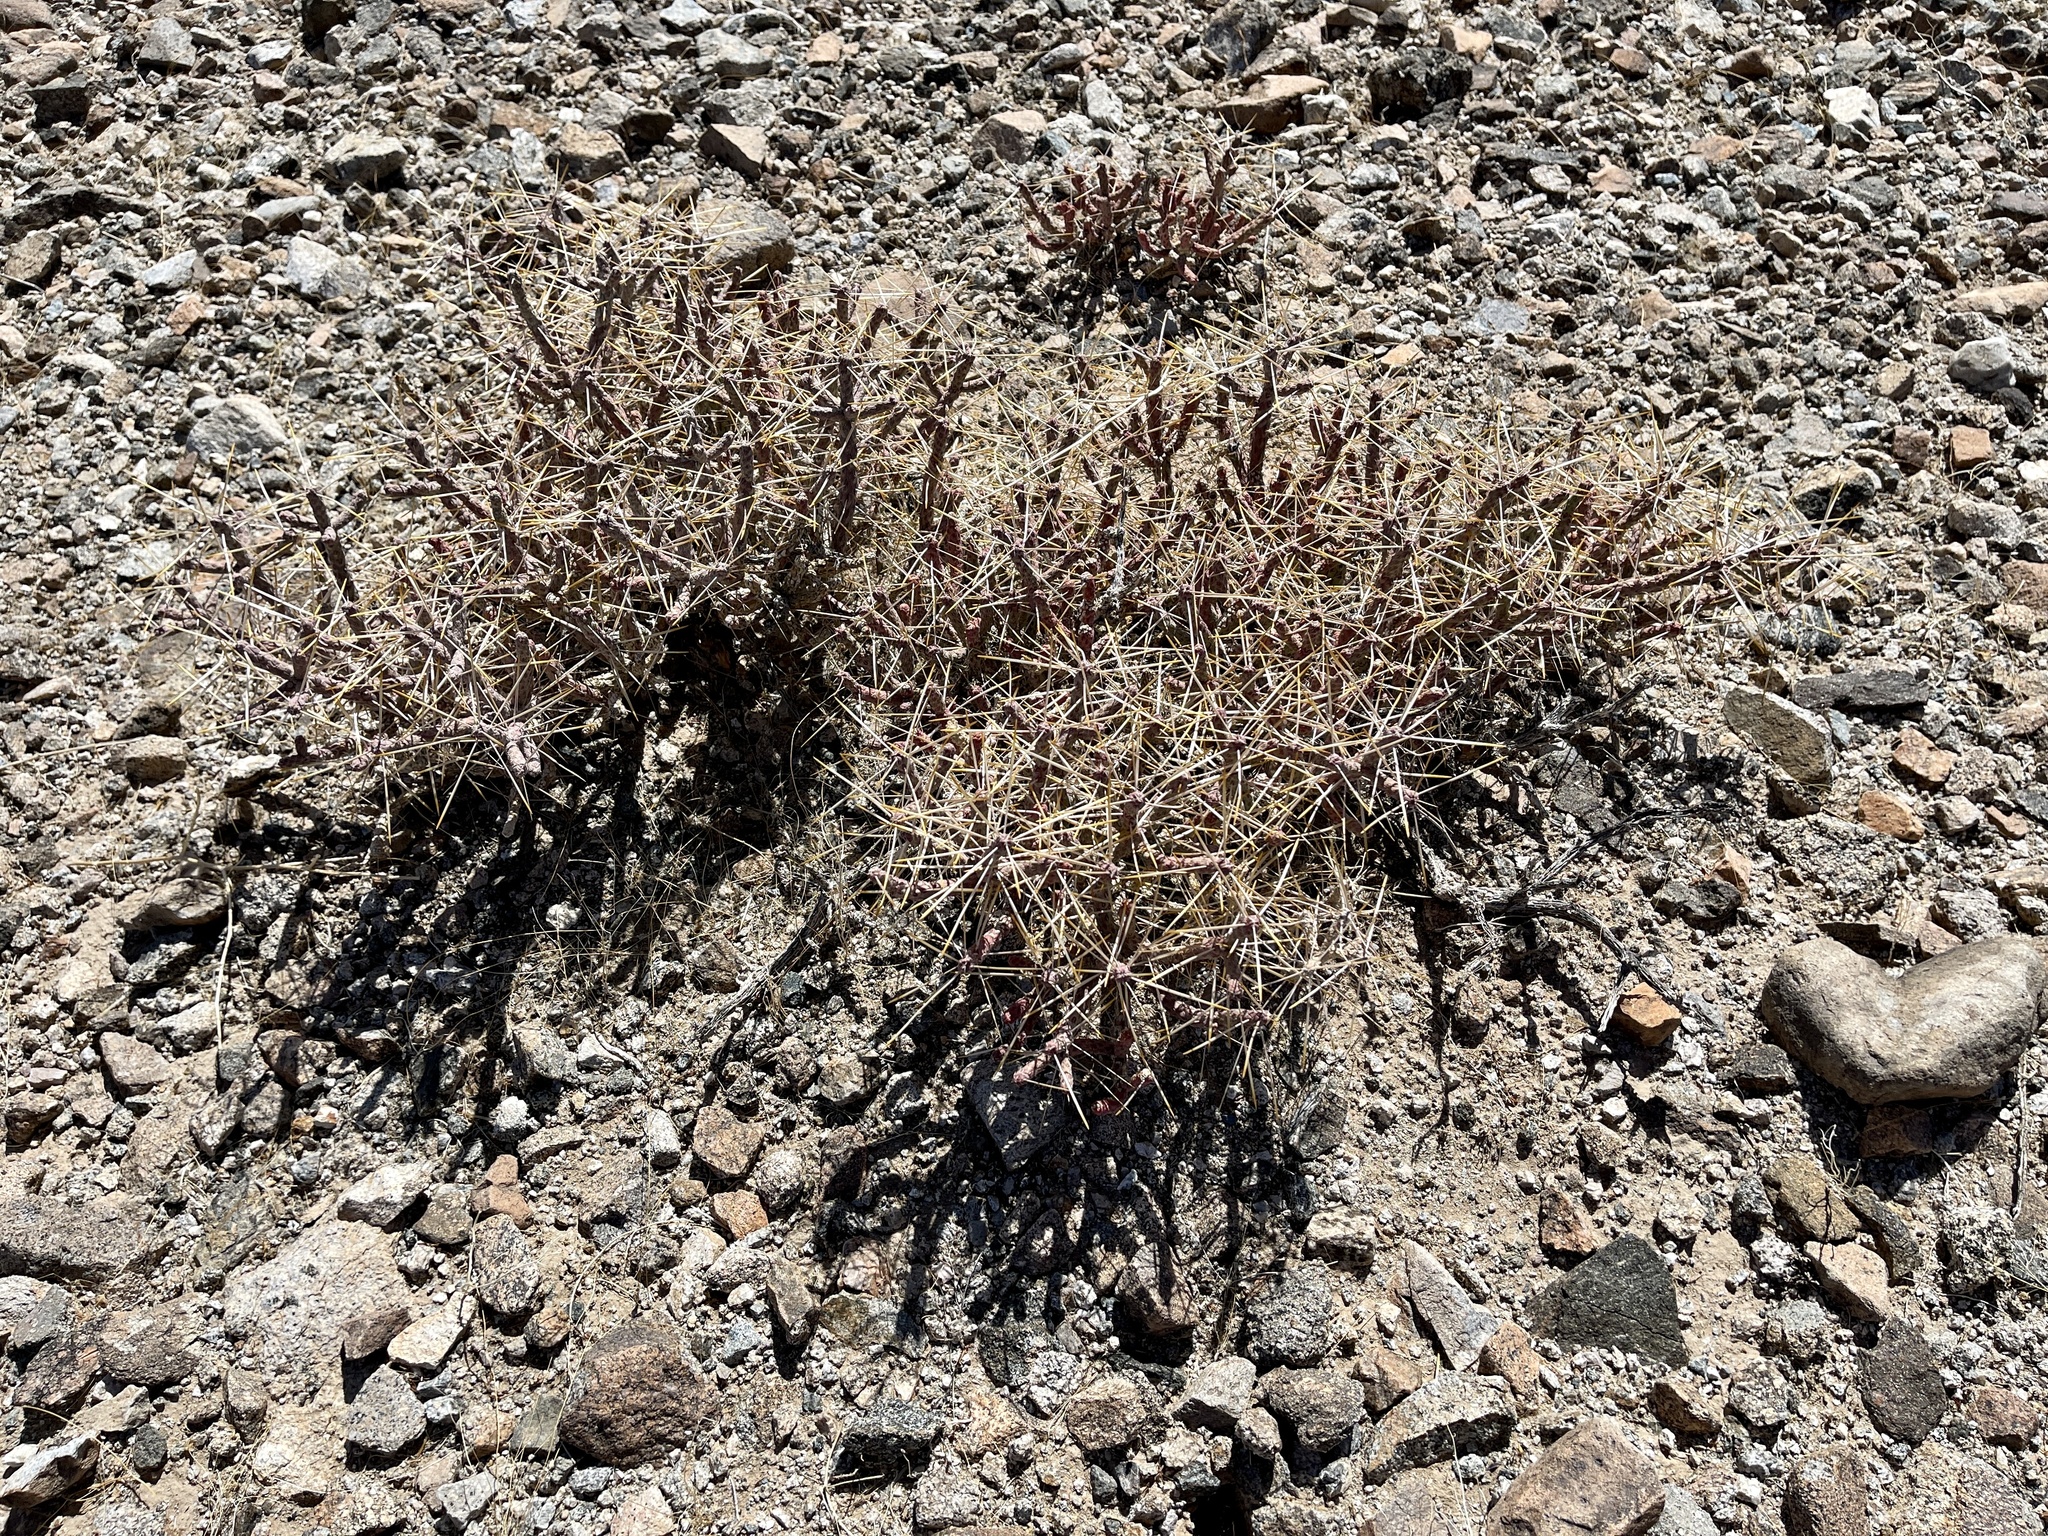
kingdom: Plantae
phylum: Tracheophyta
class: Magnoliopsida
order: Caryophyllales
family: Cactaceae
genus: Cylindropuntia
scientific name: Cylindropuntia ramosissima
